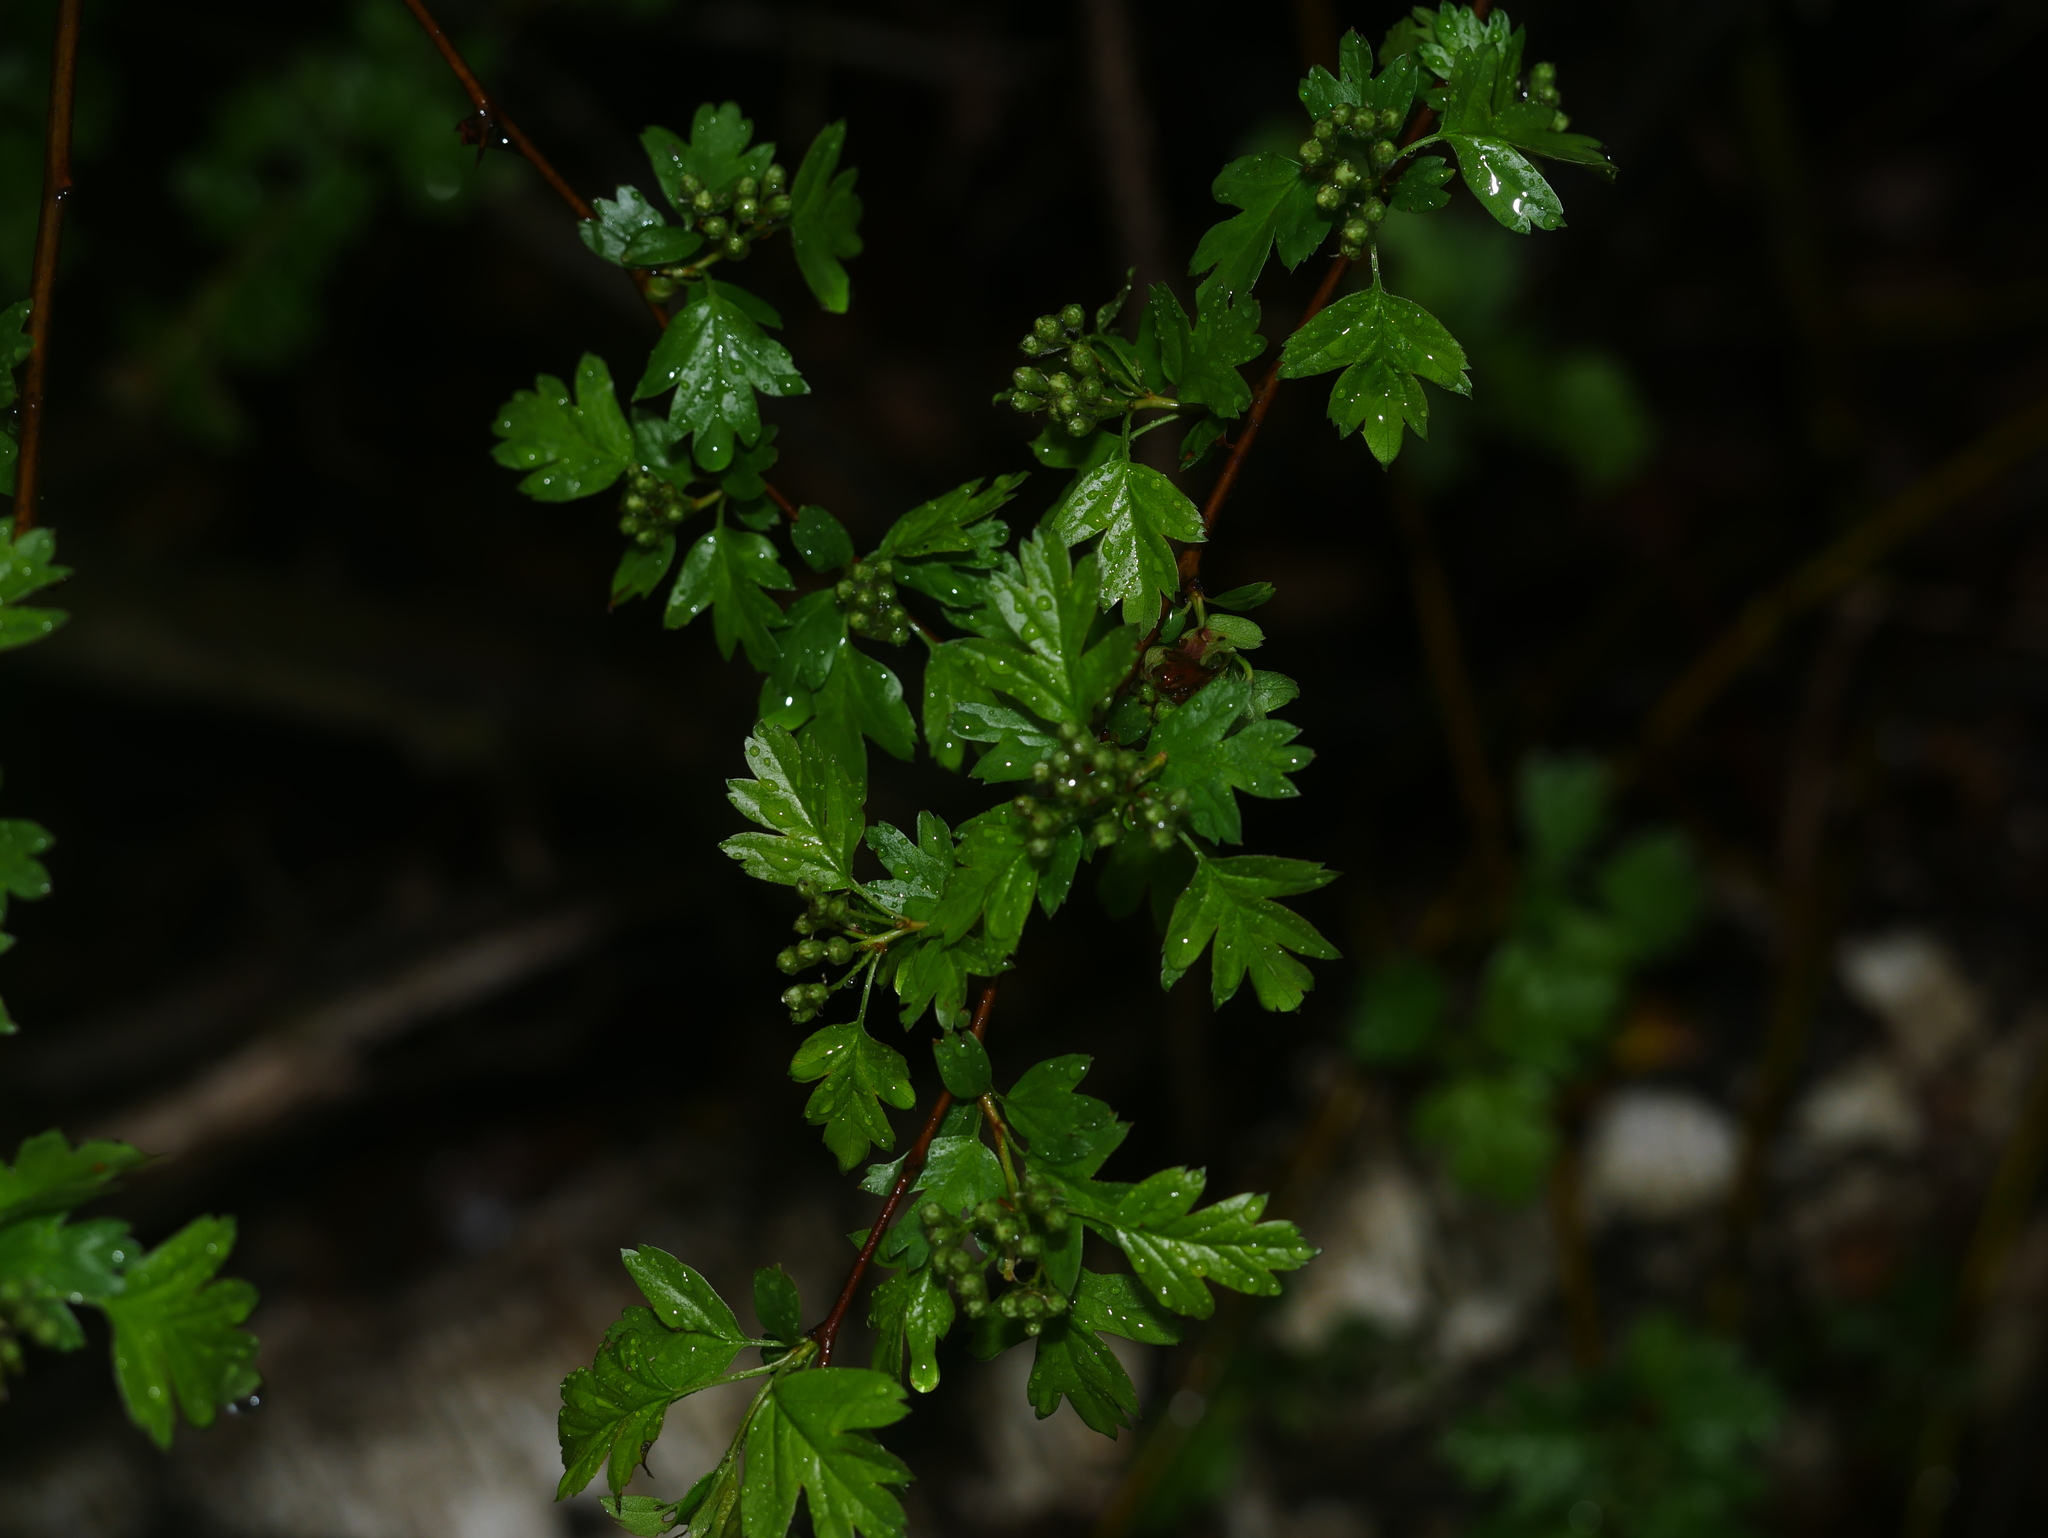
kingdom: Plantae
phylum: Tracheophyta
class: Magnoliopsida
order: Rosales
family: Rosaceae
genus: Crataegus
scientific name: Crataegus monogyna
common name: Hawthorn
